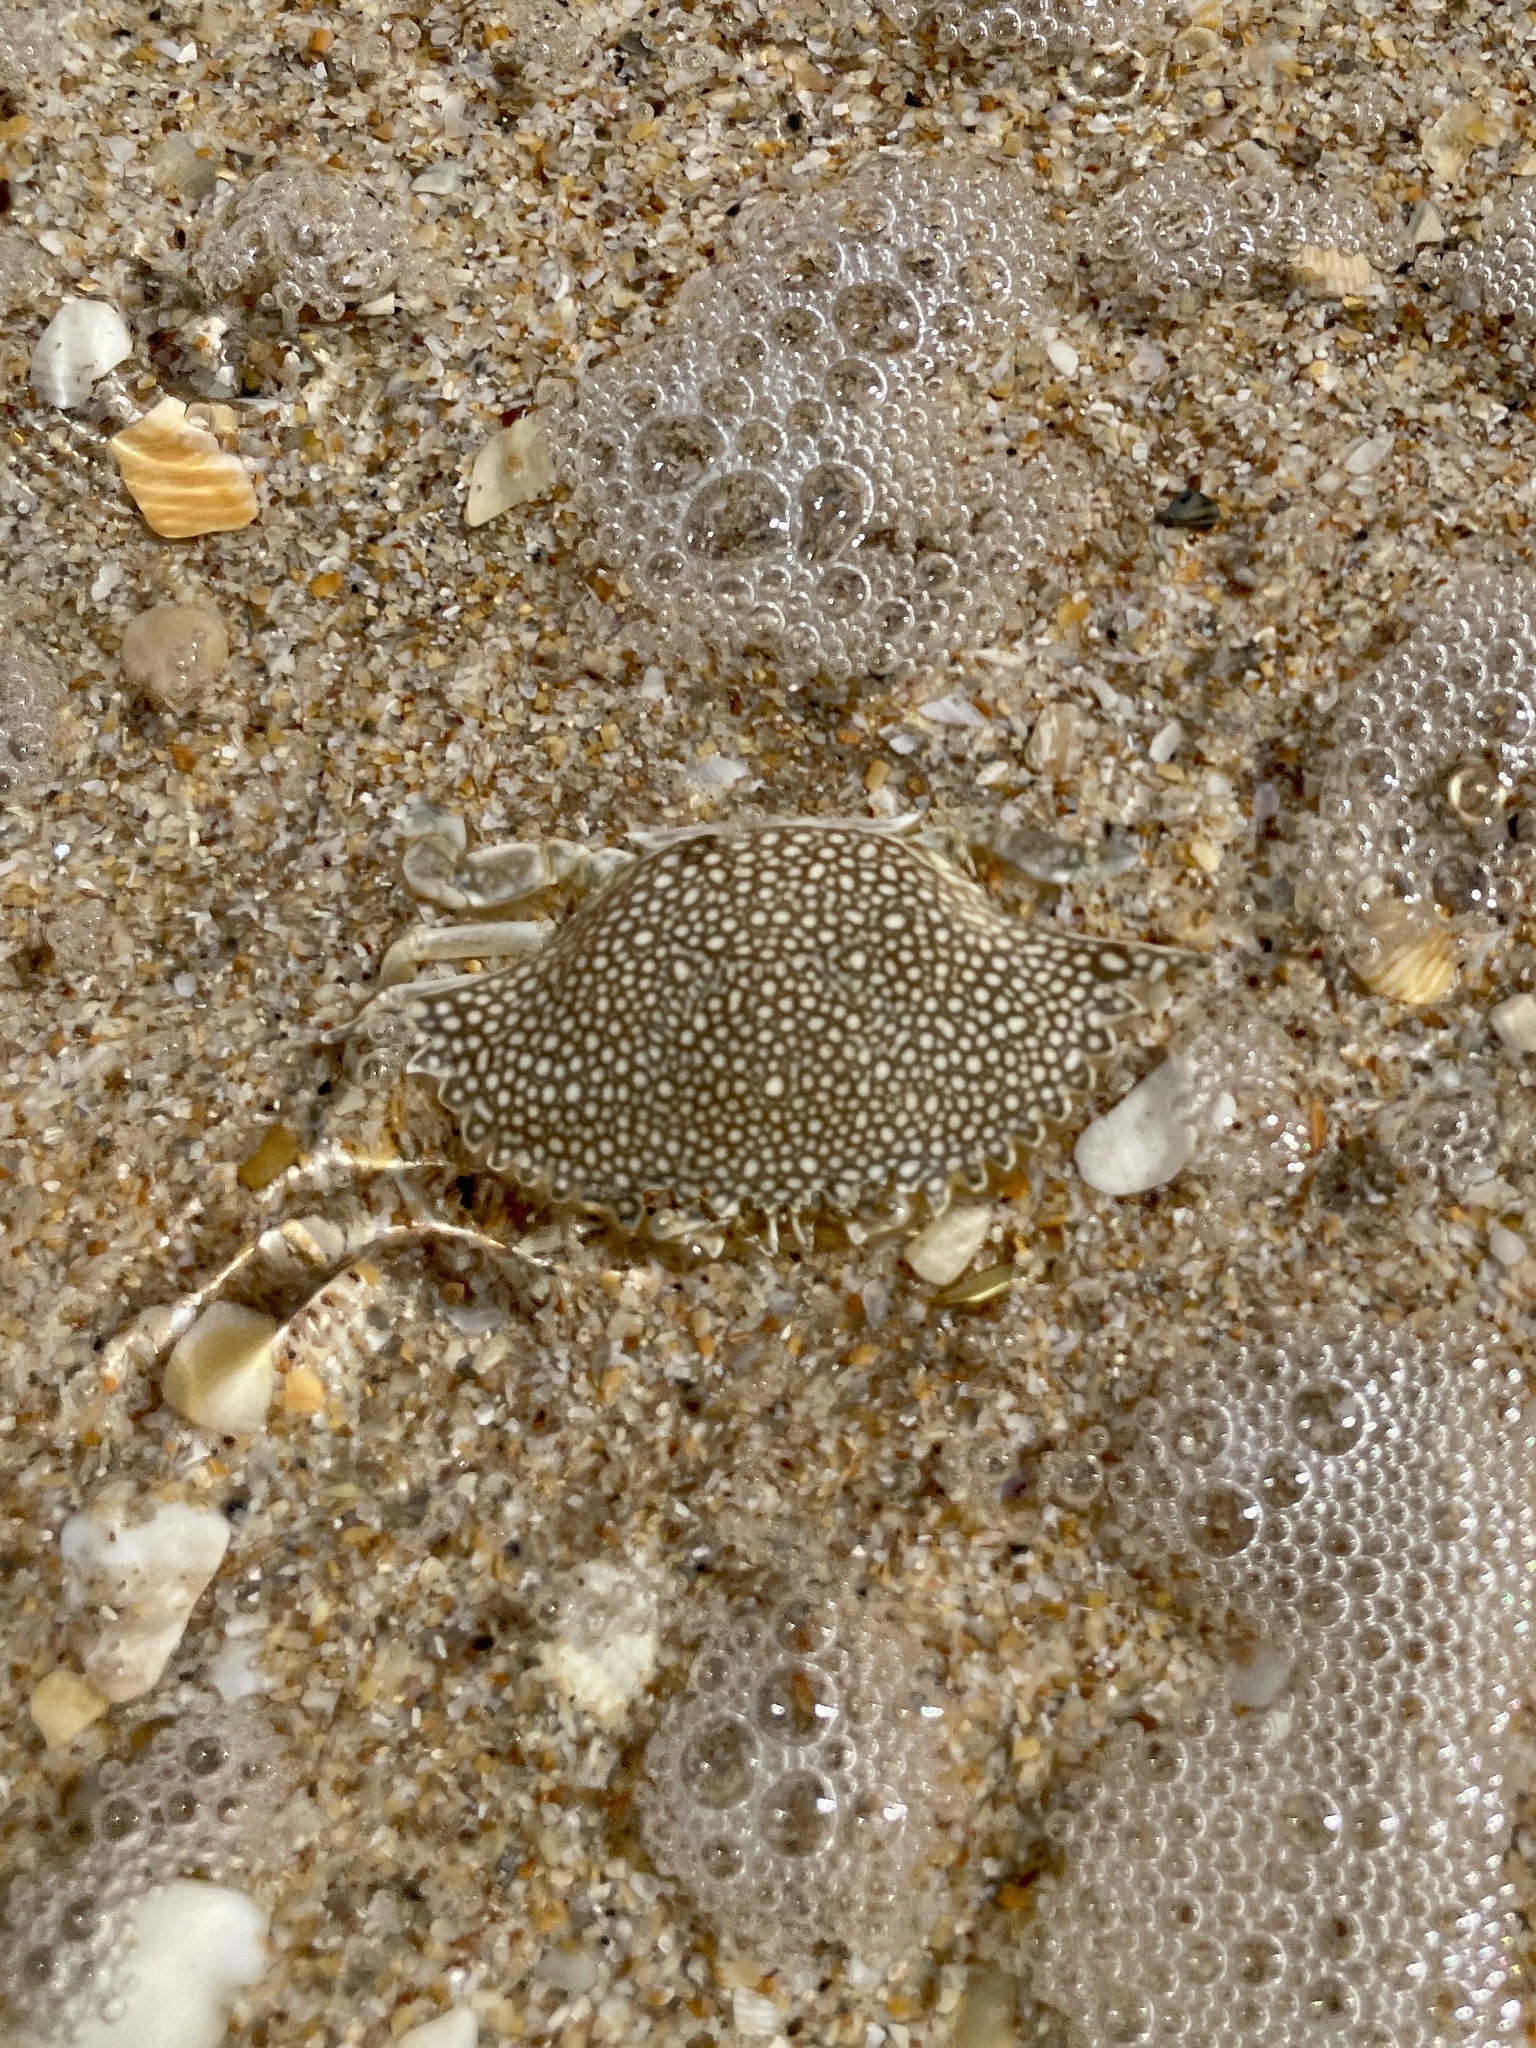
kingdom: Animalia
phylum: Arthropoda
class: Malacostraca
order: Decapoda
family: Portunidae
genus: Arenaeus
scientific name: Arenaeus cribrarius
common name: Speckled crab
